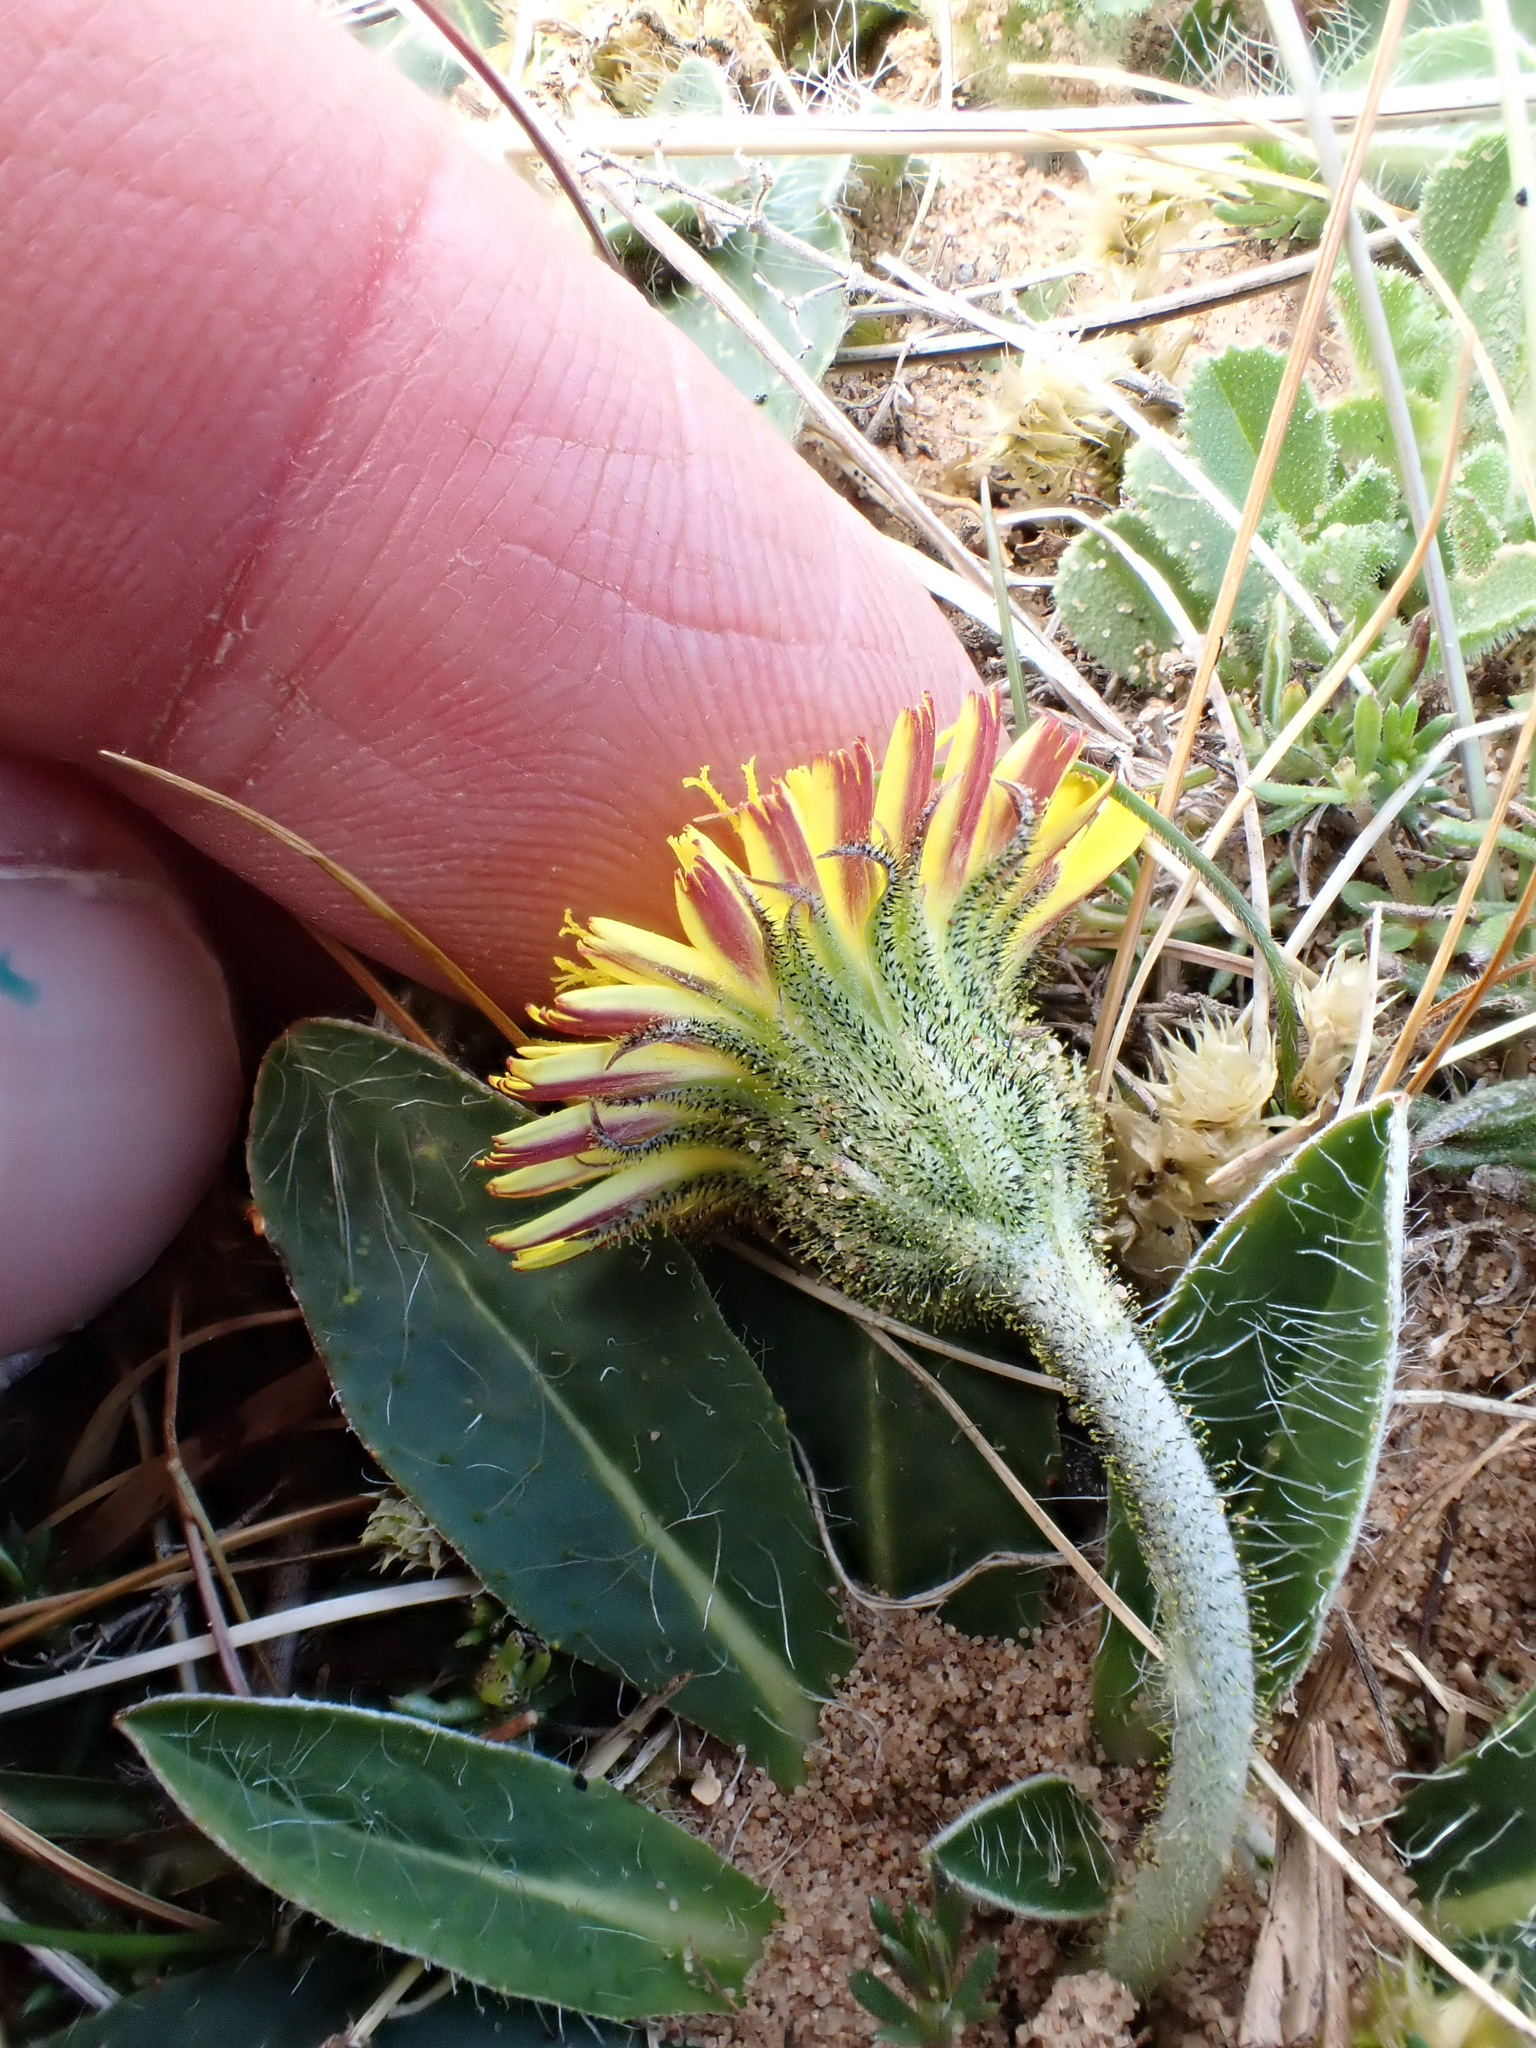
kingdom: Plantae
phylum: Tracheophyta
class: Magnoliopsida
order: Asterales
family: Asteraceae
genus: Pilosella
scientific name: Pilosella officinarum
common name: Mouse-ear hawkweed
